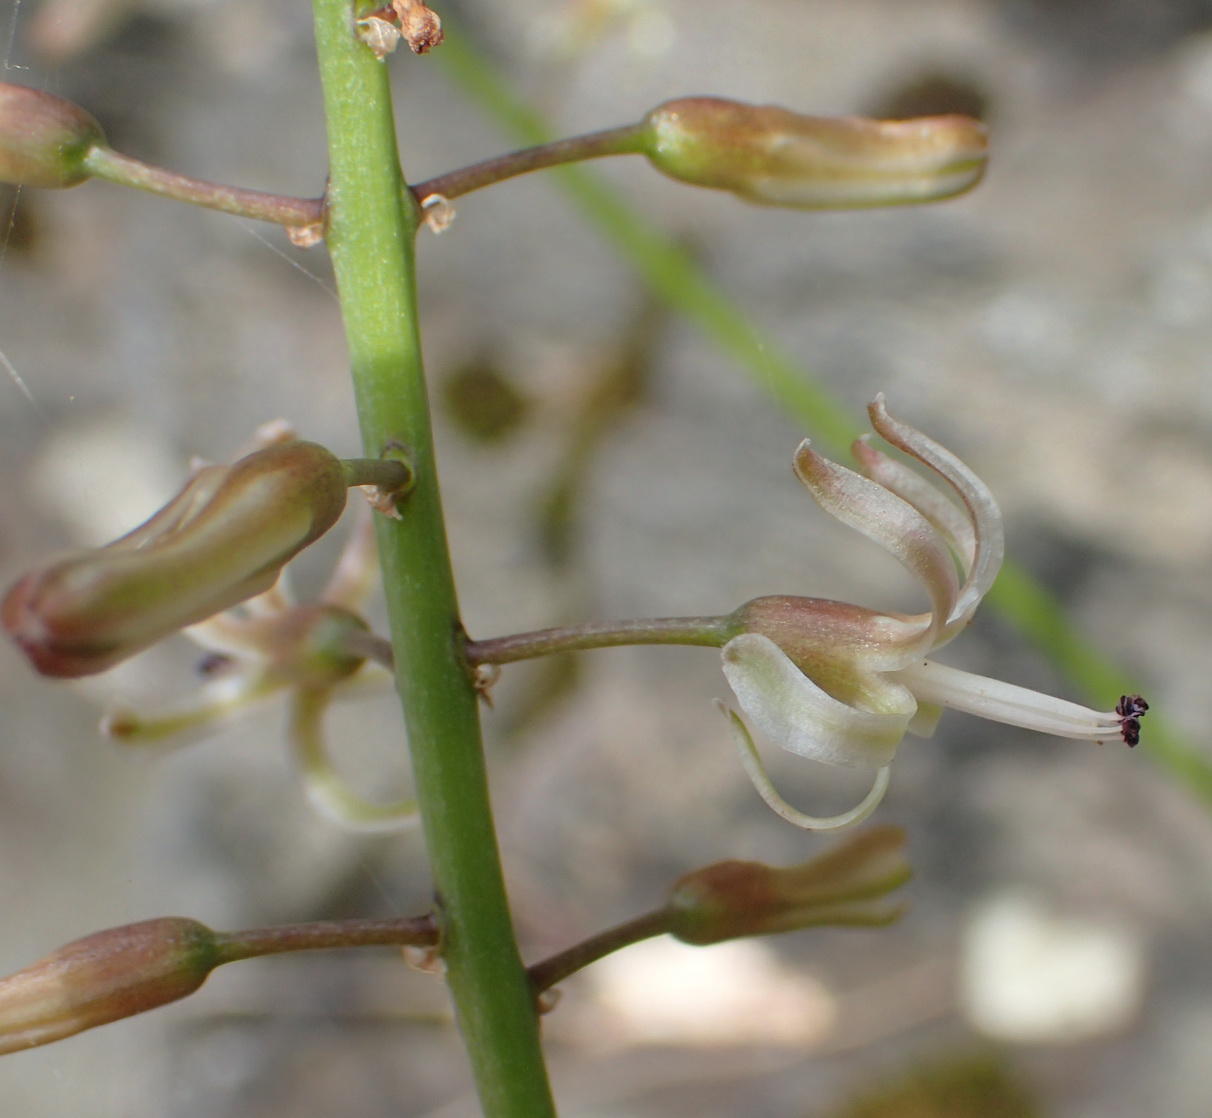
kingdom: Plantae
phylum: Tracheophyta
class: Liliopsida
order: Asparagales
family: Asparagaceae
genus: Drimia
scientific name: Drimia media
